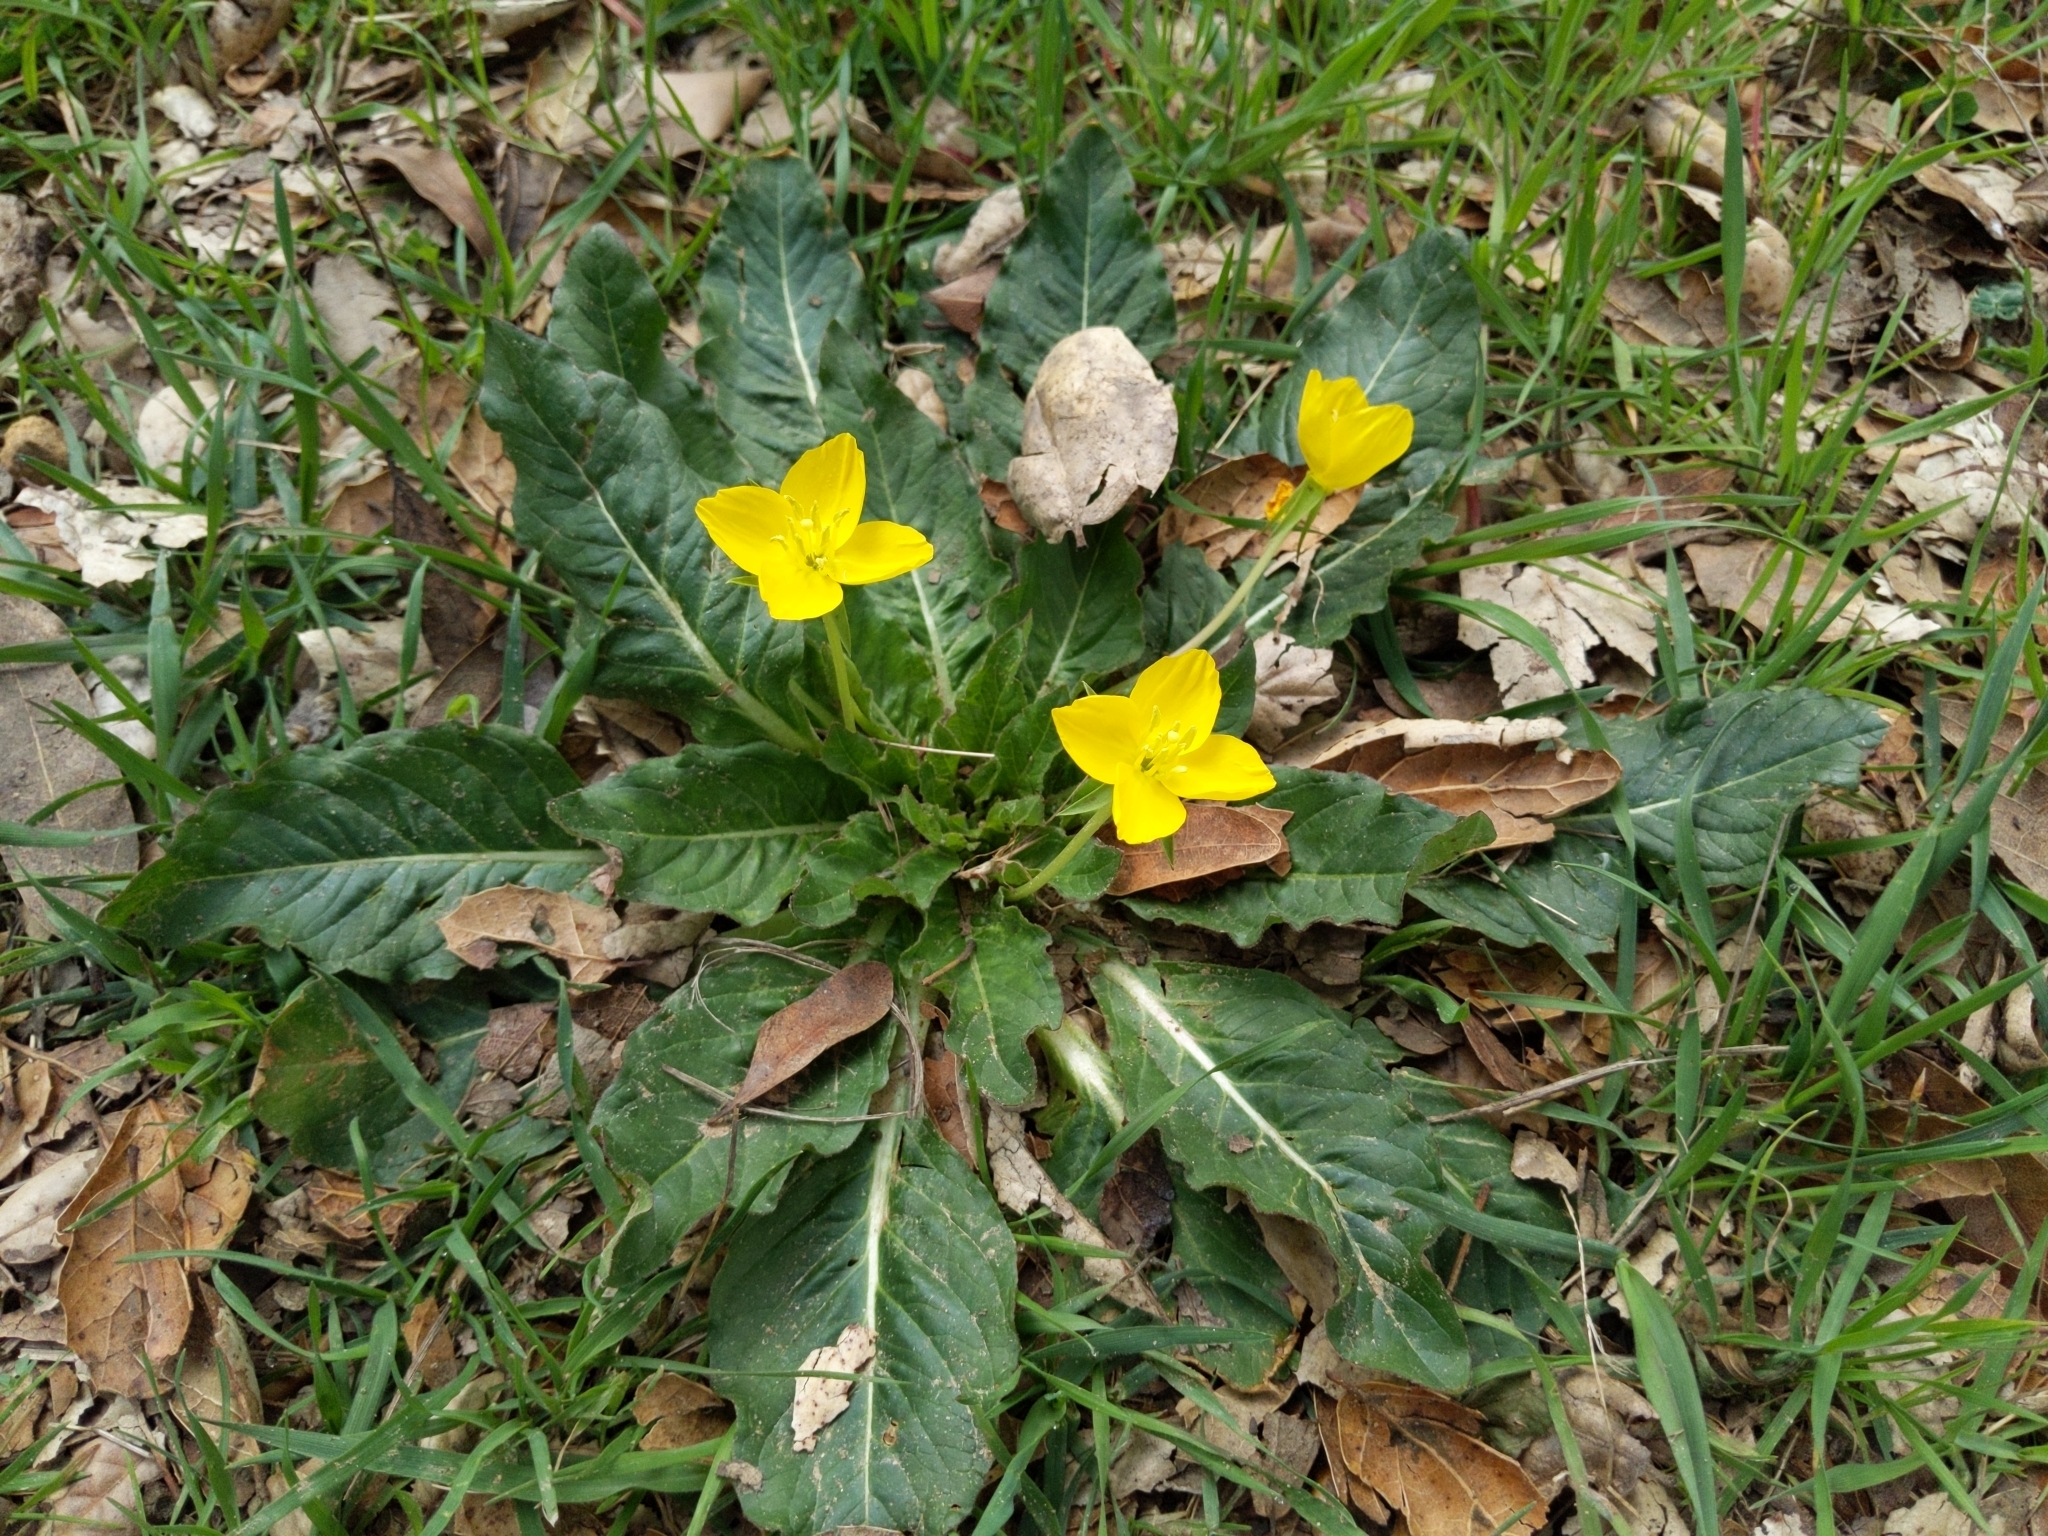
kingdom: Plantae
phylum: Tracheophyta
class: Magnoliopsida
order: Myrtales
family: Onagraceae
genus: Taraxia
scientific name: Taraxia ovata
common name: Goldeneggs
